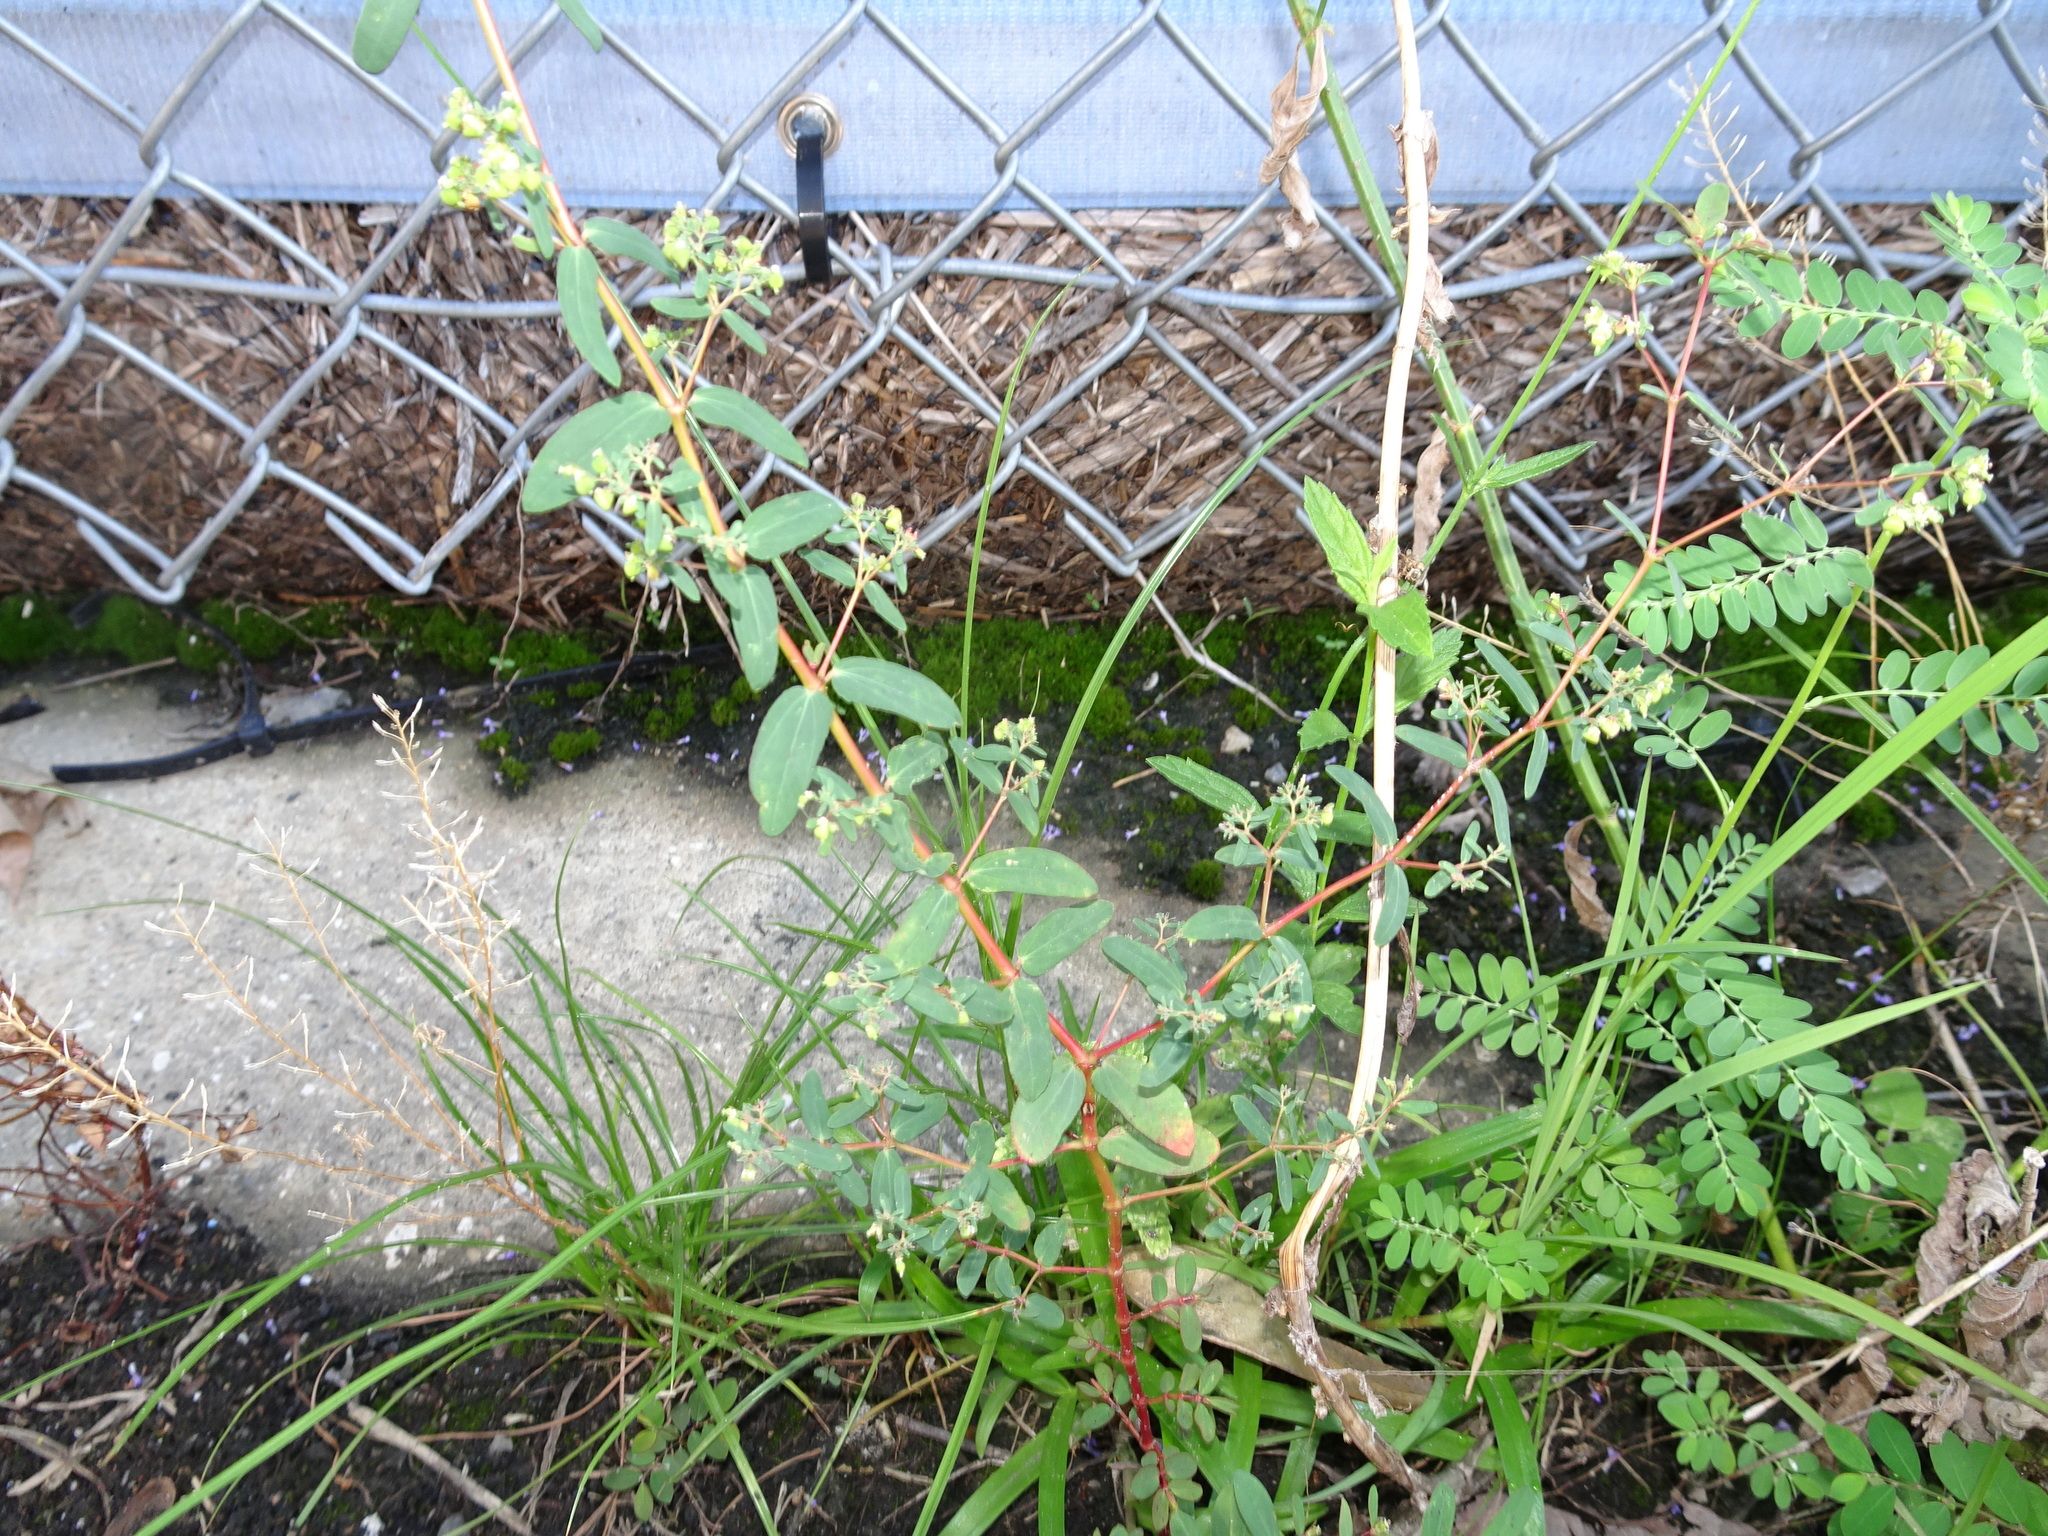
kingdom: Plantae
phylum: Tracheophyta
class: Magnoliopsida
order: Malpighiales
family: Euphorbiaceae
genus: Euphorbia
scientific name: Euphorbia hyssopifolia
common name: Hyssopleaf sandmat
